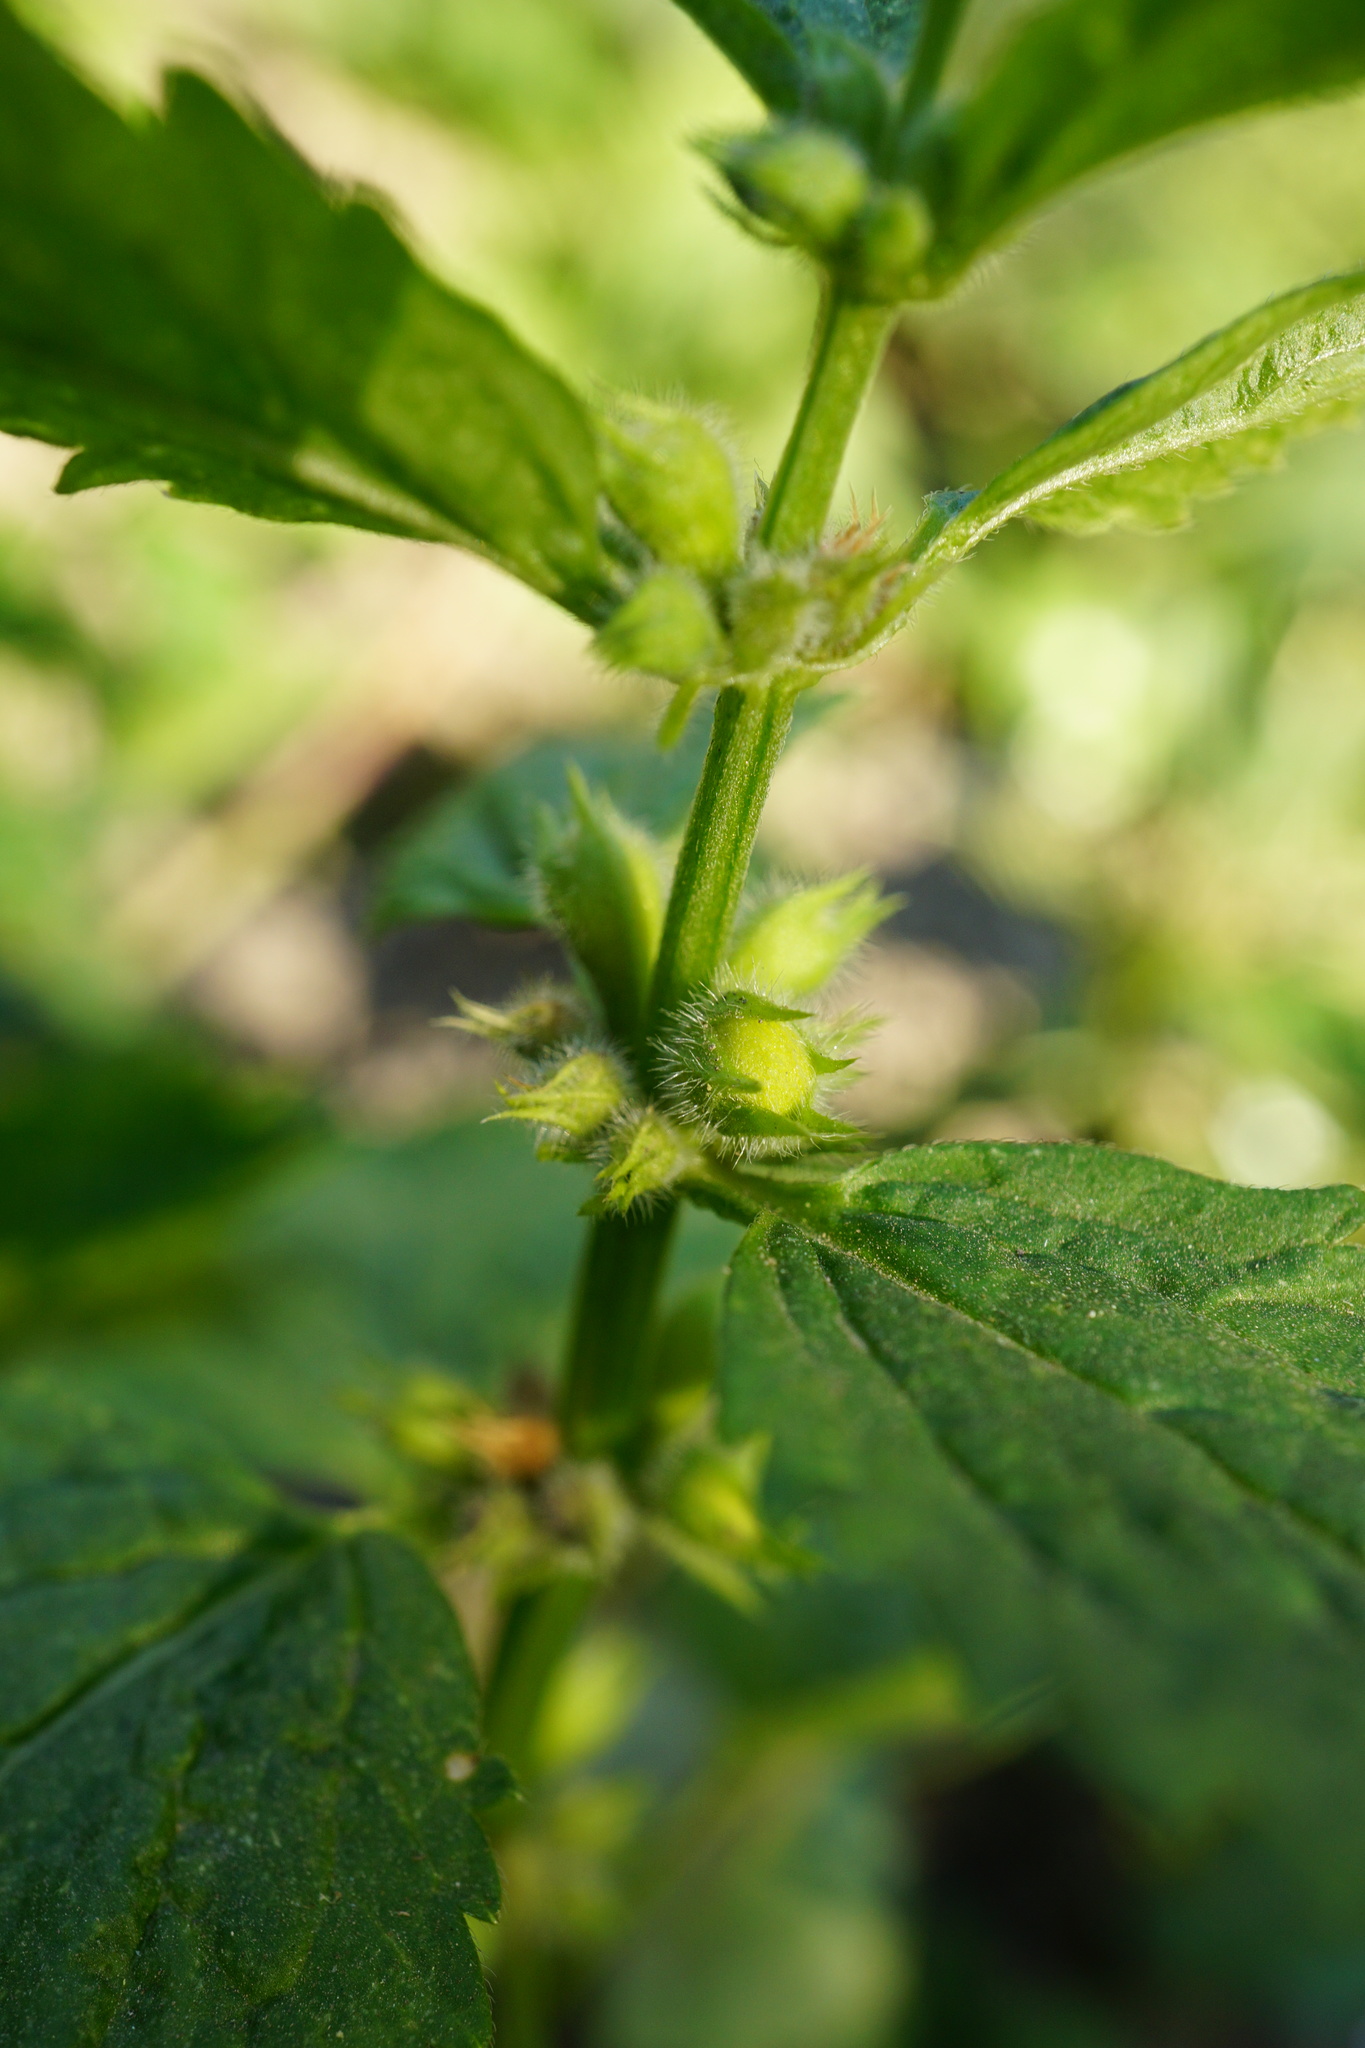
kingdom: Plantae
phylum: Tracheophyta
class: Magnoliopsida
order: Lamiales
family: Lamiaceae
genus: Lamium
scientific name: Lamium galeobdolon
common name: Yellow archangel
